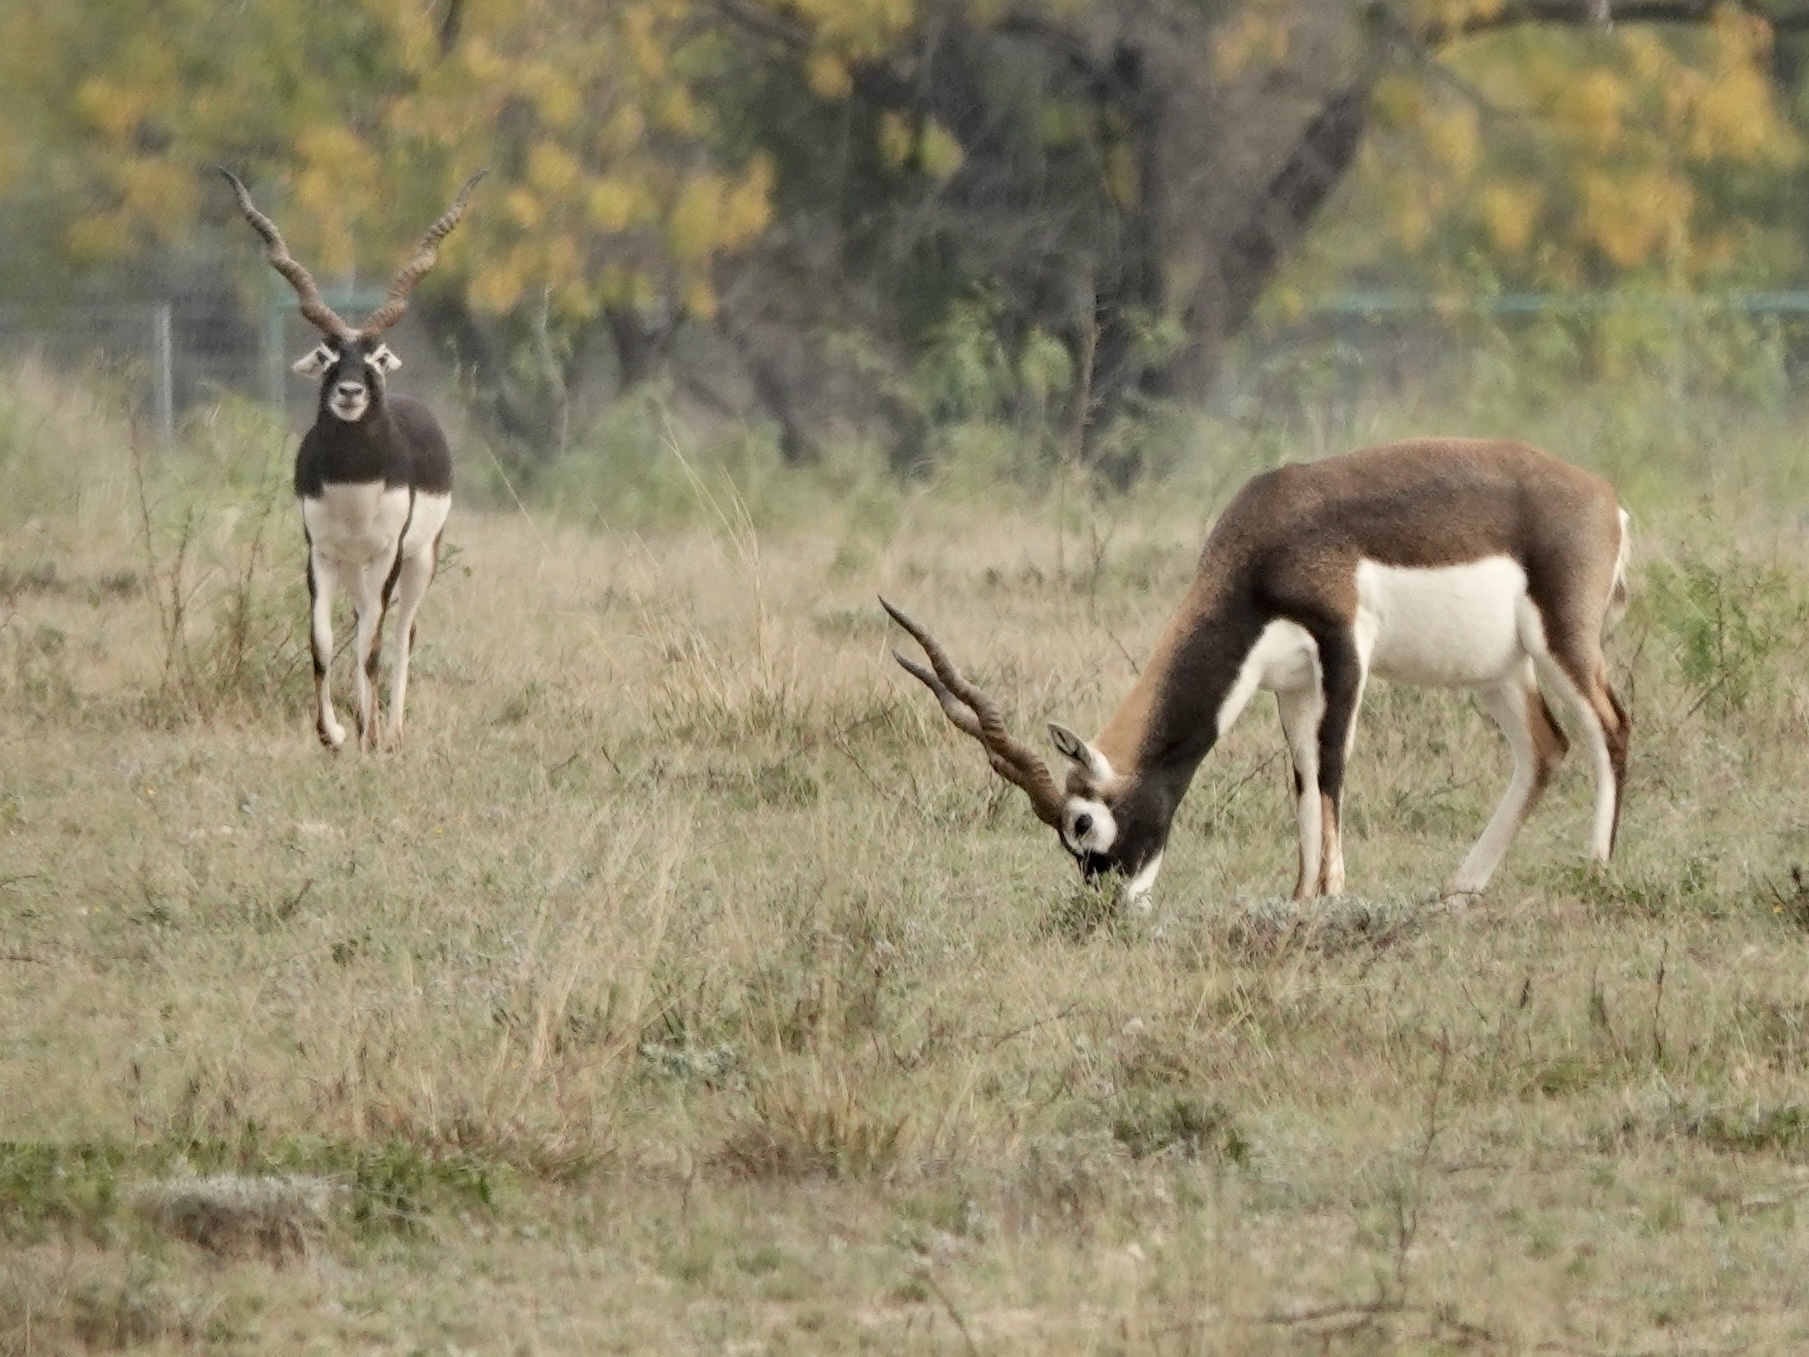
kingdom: Animalia
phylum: Chordata
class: Mammalia
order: Artiodactyla
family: Bovidae
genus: Antilope
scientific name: Antilope cervicapra
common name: Blackbuck
